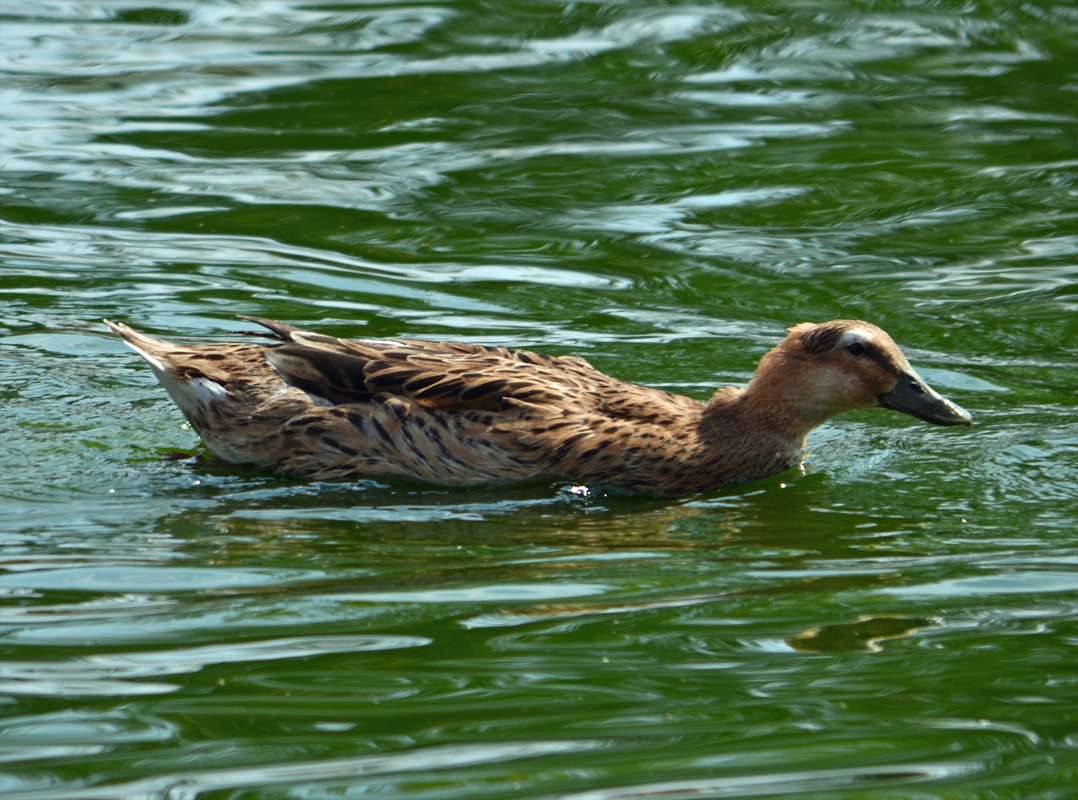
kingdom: Animalia
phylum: Chordata
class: Aves
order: Anseriformes
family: Anatidae
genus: Anas
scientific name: Anas platyrhynchos
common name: Mallard
